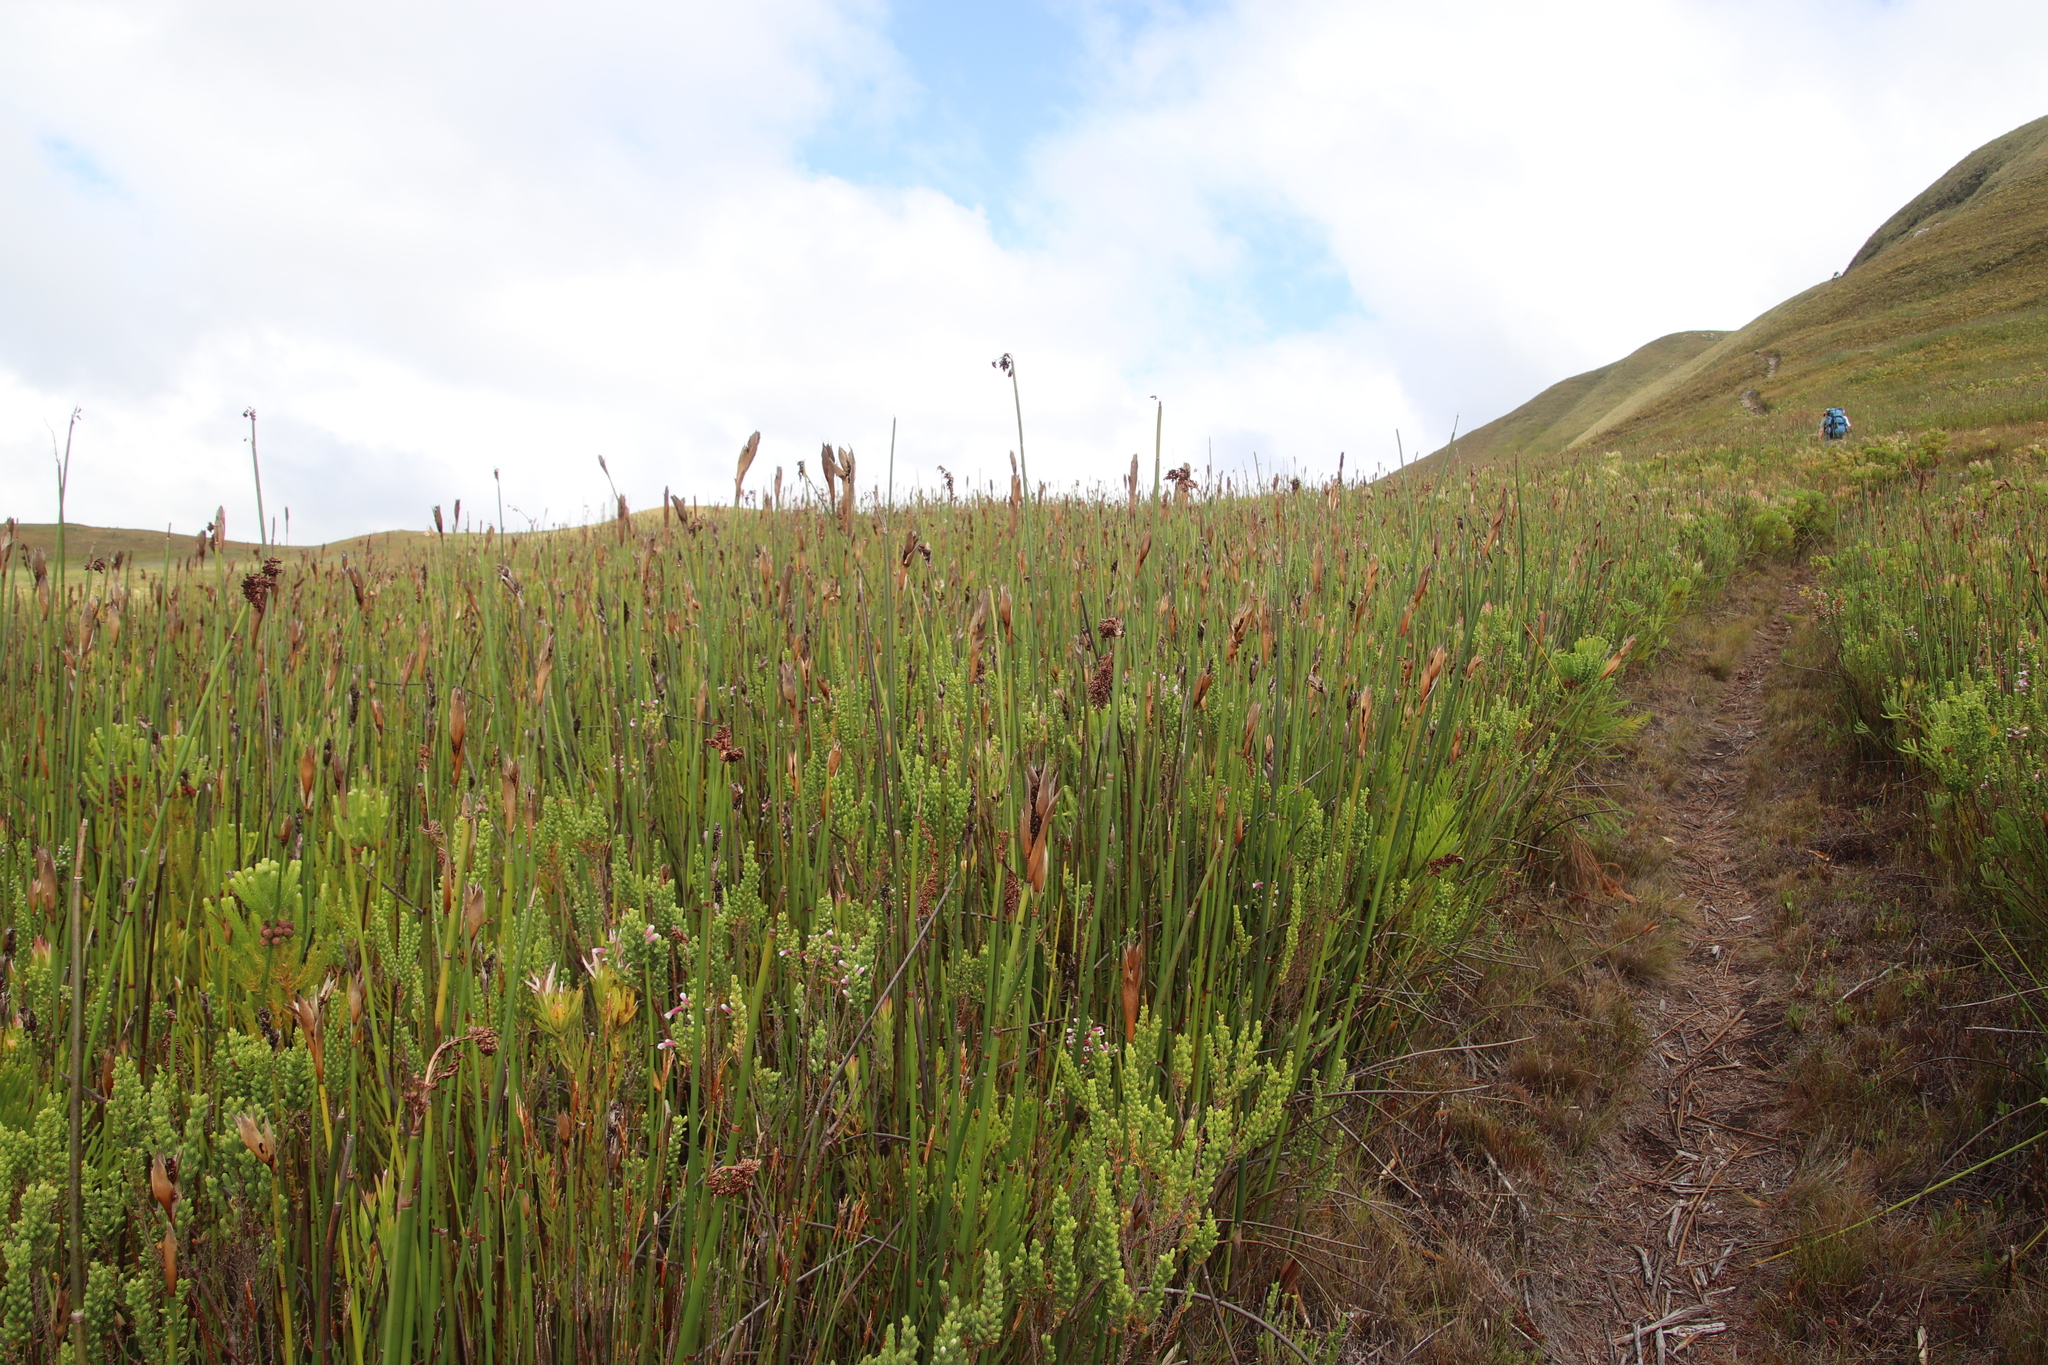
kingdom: Plantae
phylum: Tracheophyta
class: Liliopsida
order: Poales
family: Restionaceae
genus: Elegia
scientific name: Elegia mucronata
